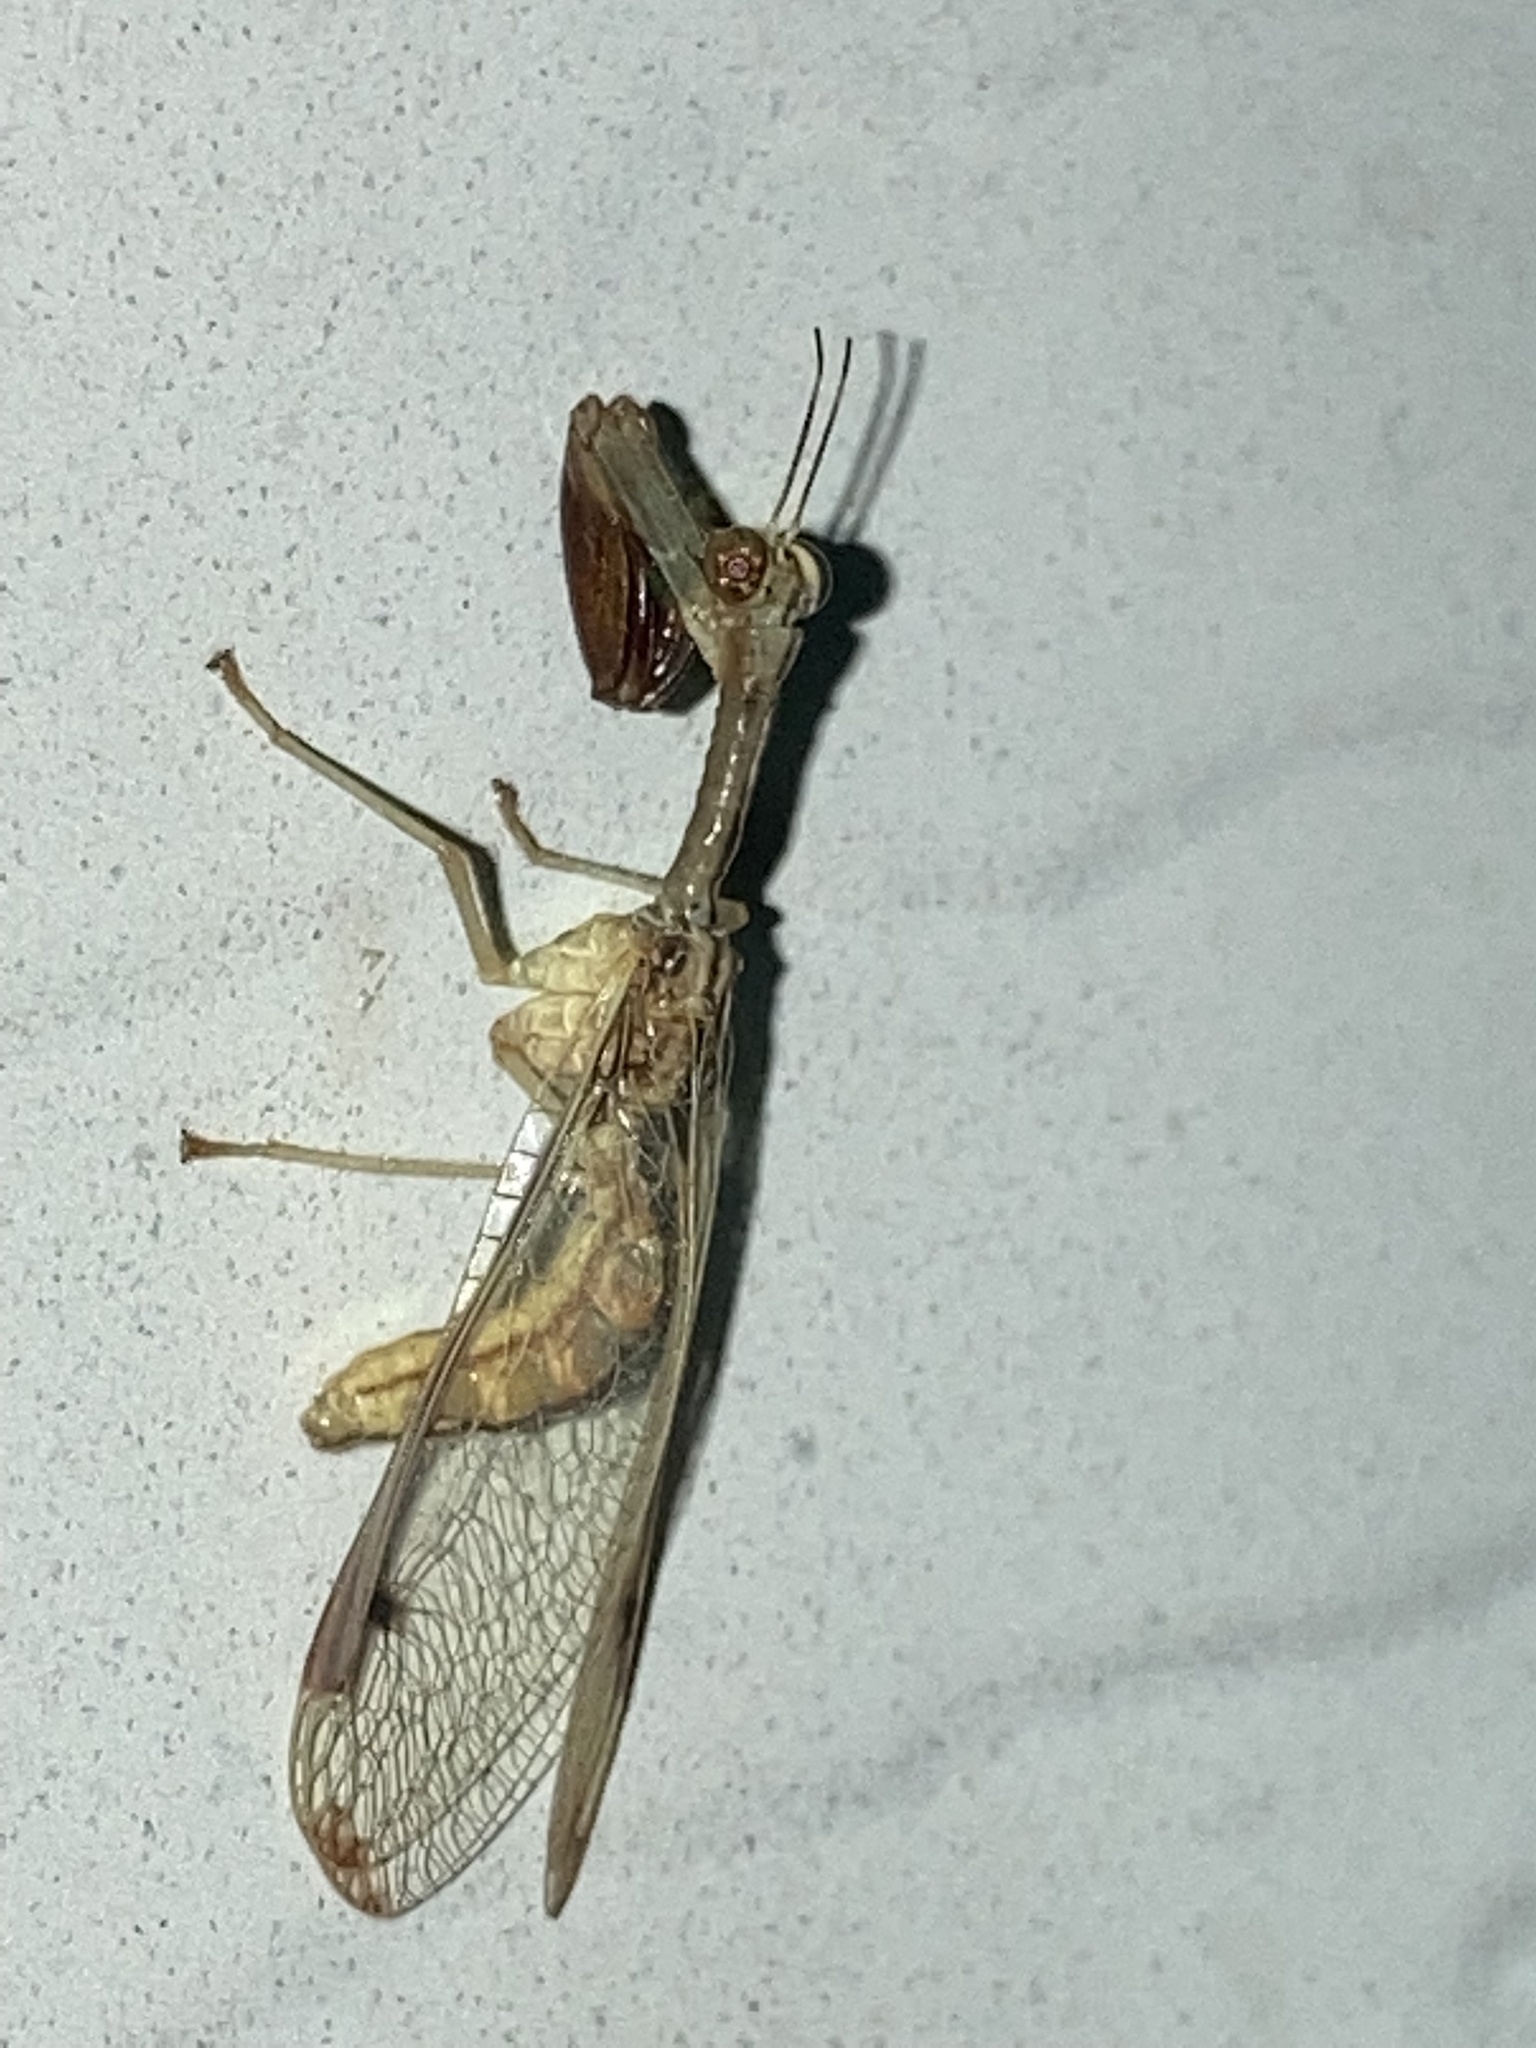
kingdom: Animalia
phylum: Arthropoda
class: Insecta
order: Neuroptera
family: Mantispidae
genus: Dicromantispa
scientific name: Dicromantispa interrupta
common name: Four-spotted mantidfly
